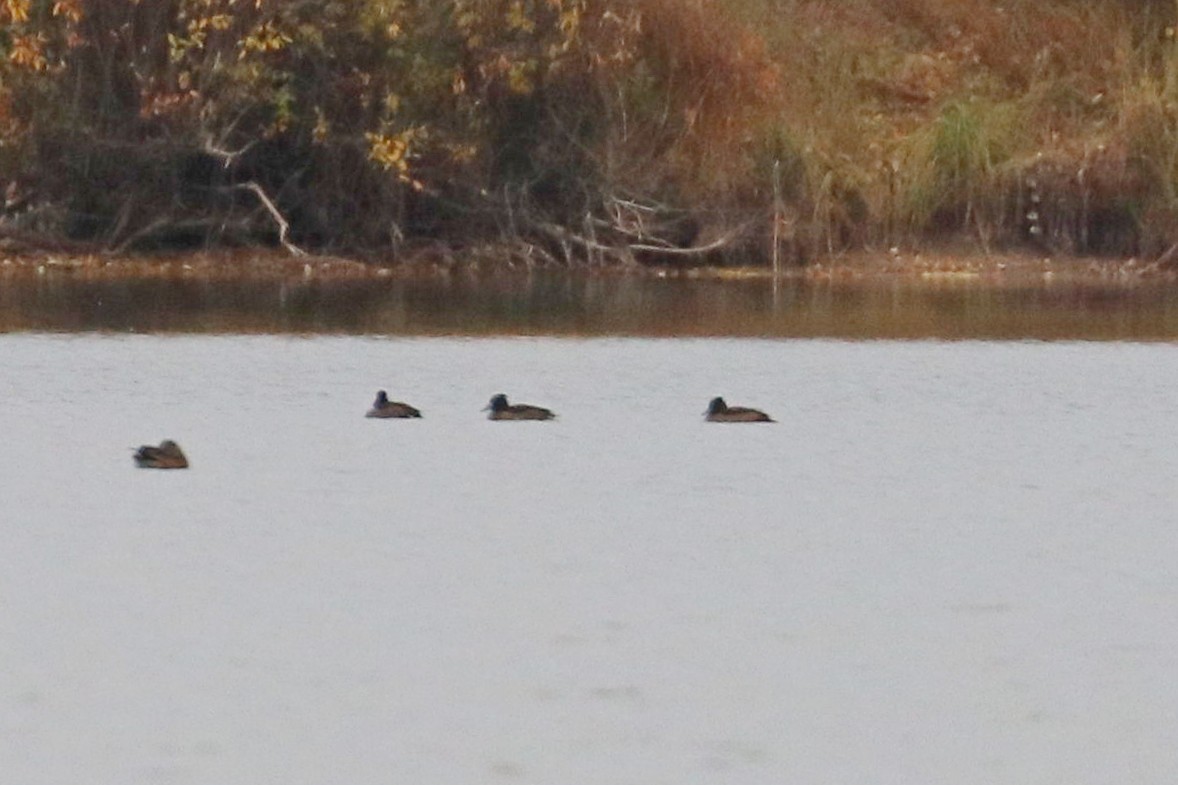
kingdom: Animalia
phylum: Chordata
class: Aves
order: Anseriformes
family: Anatidae
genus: Aythya
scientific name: Aythya fuligula
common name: Tufted duck
